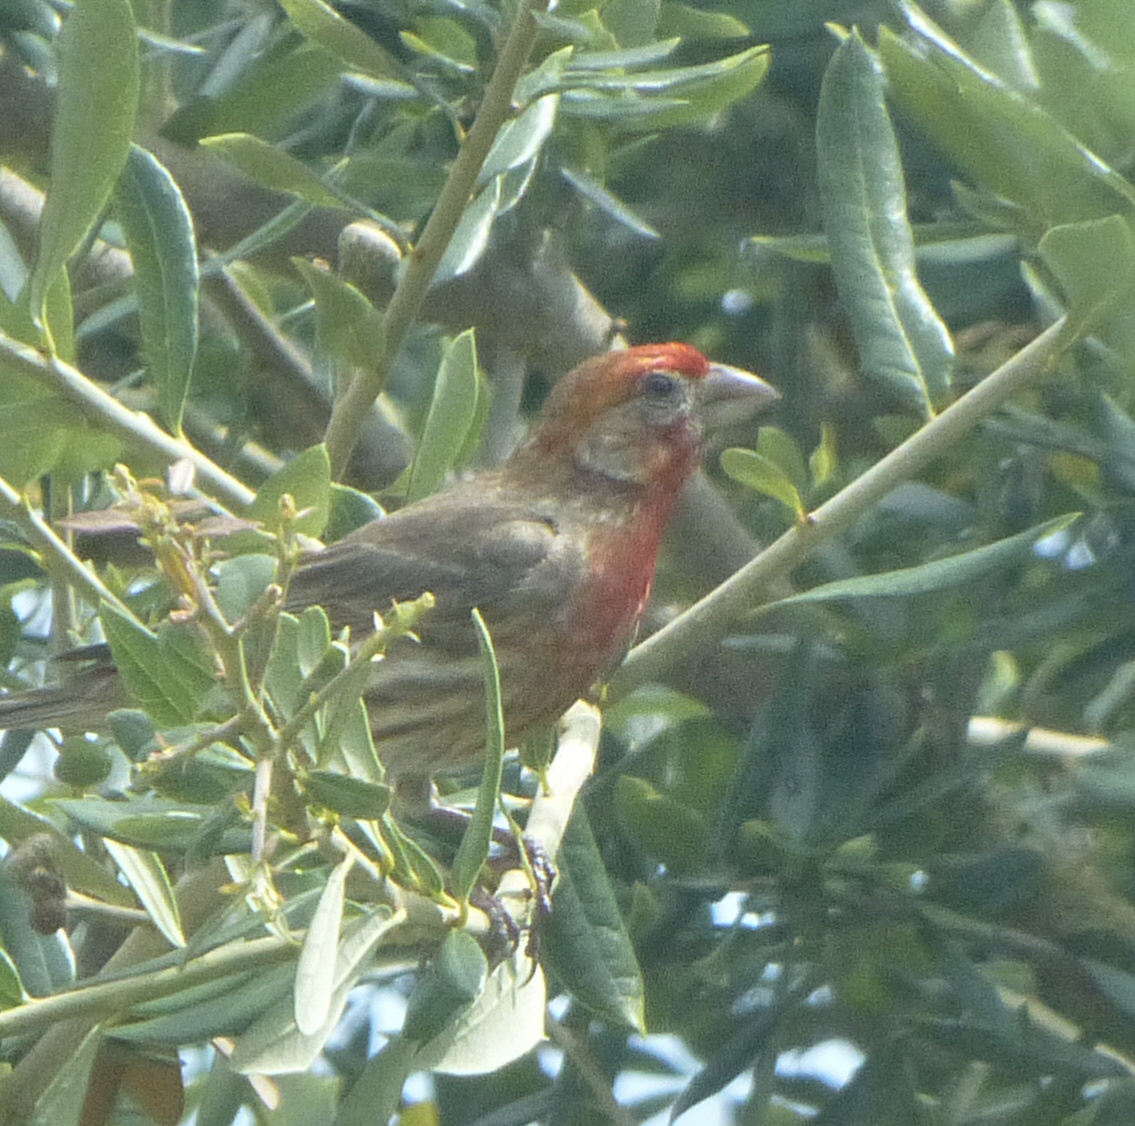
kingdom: Animalia
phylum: Chordata
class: Aves
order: Passeriformes
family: Fringillidae
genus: Haemorhous
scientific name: Haemorhous mexicanus
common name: House finch
